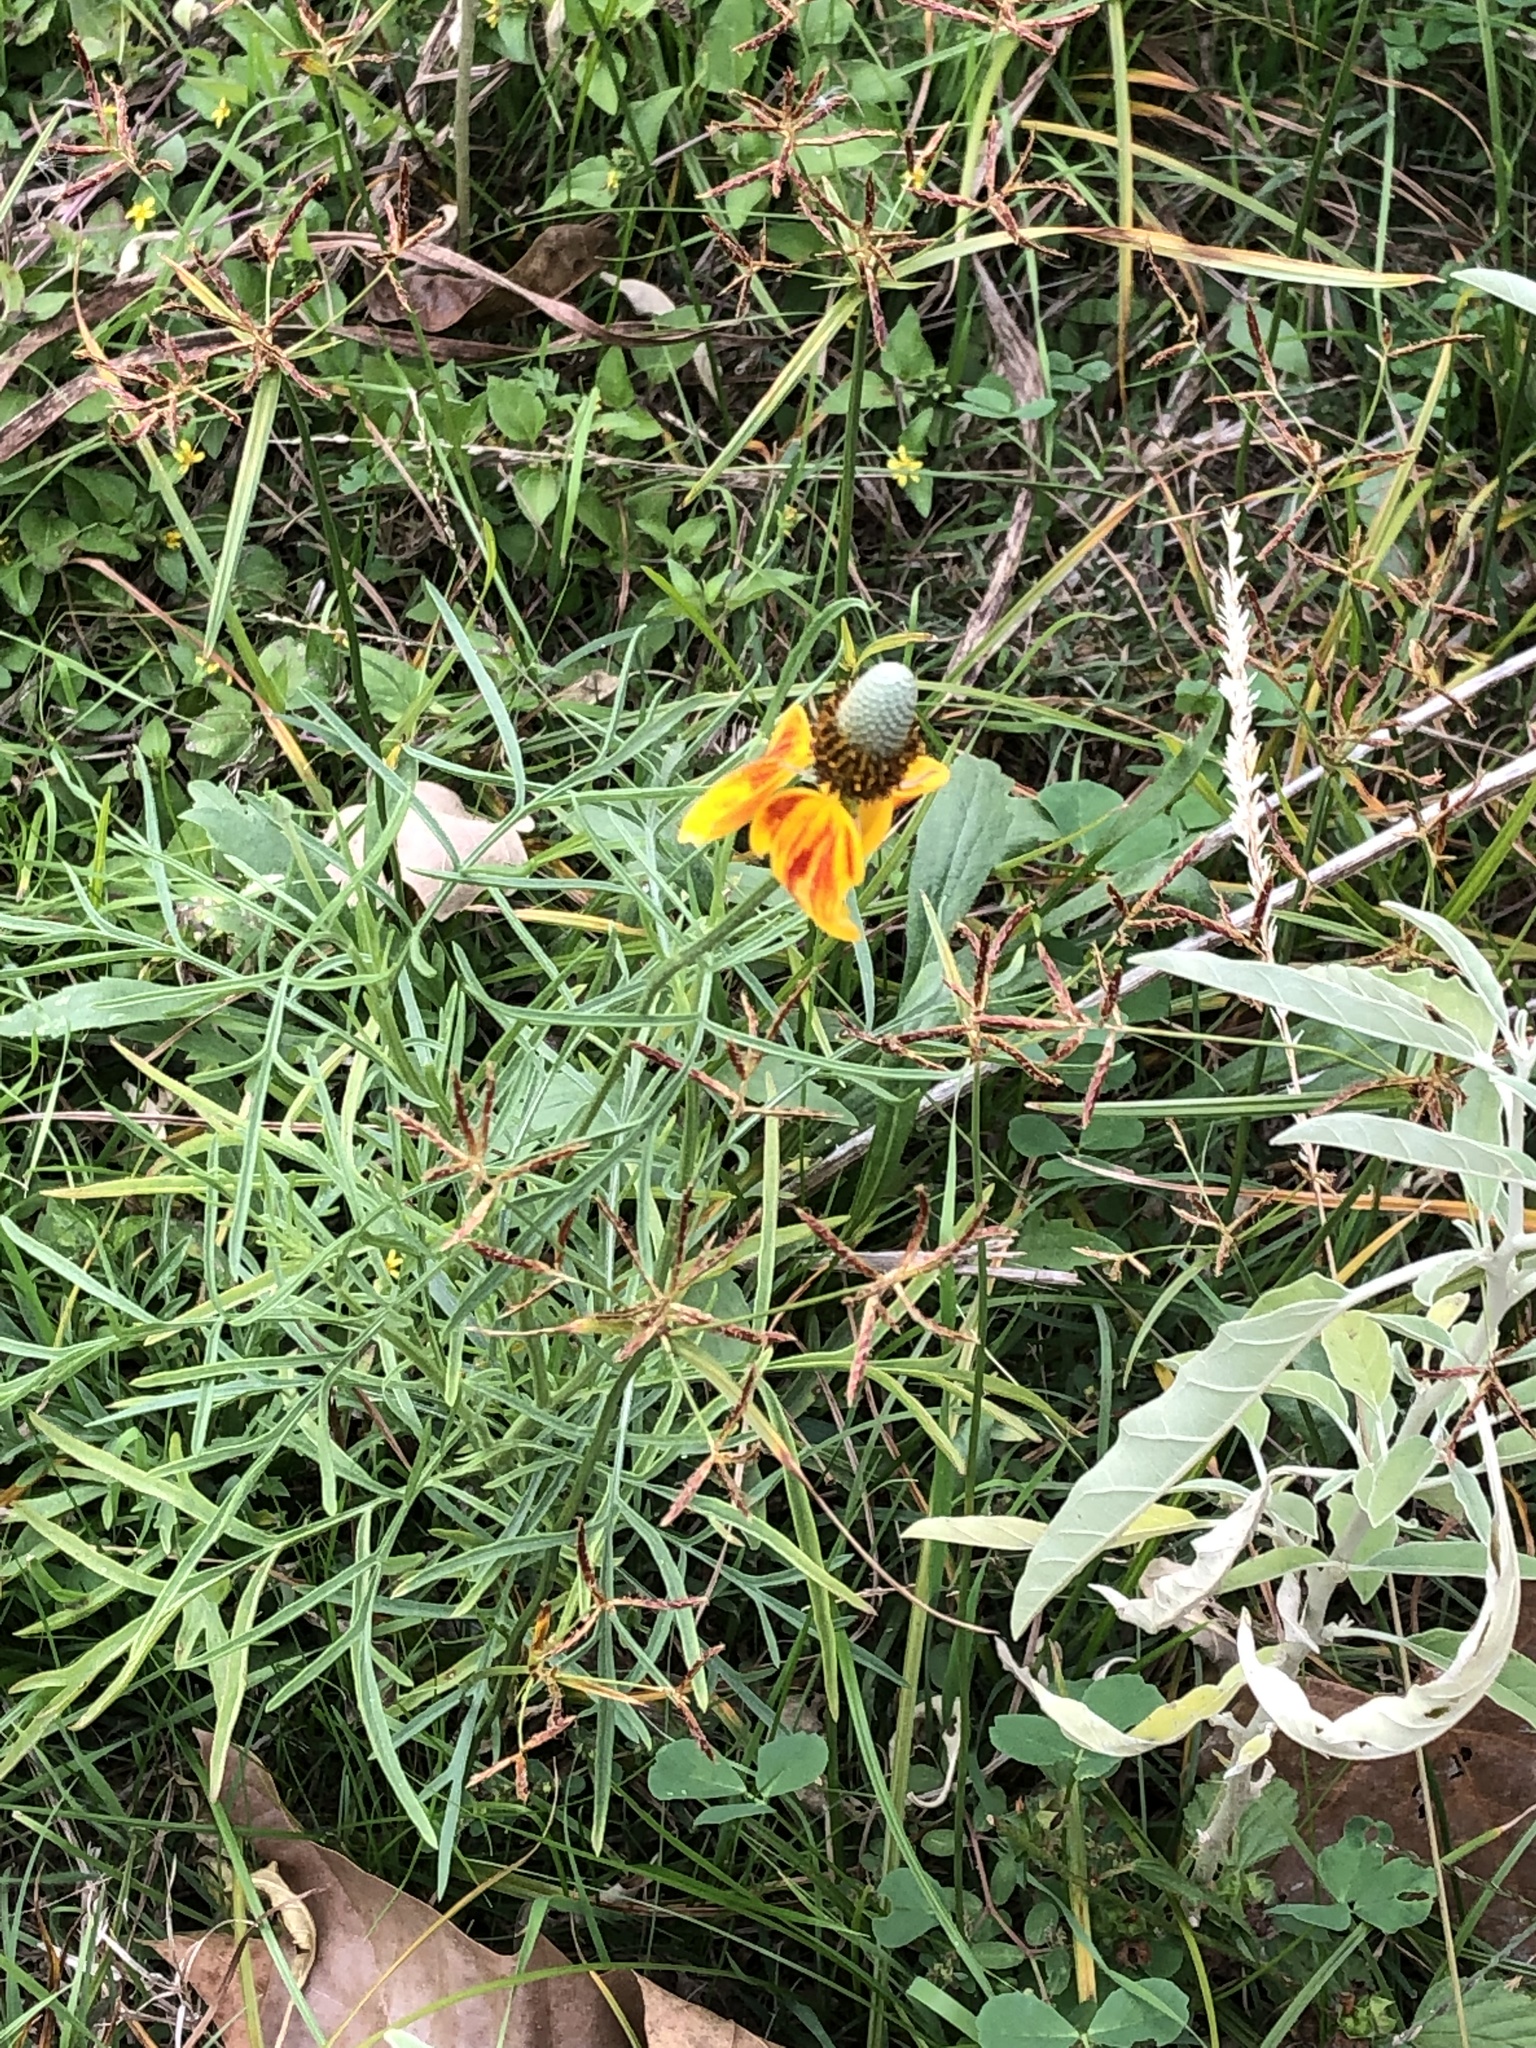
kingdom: Plantae
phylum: Tracheophyta
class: Magnoliopsida
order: Asterales
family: Asteraceae
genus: Ratibida
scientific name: Ratibida columnifera
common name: Prairie coneflower
